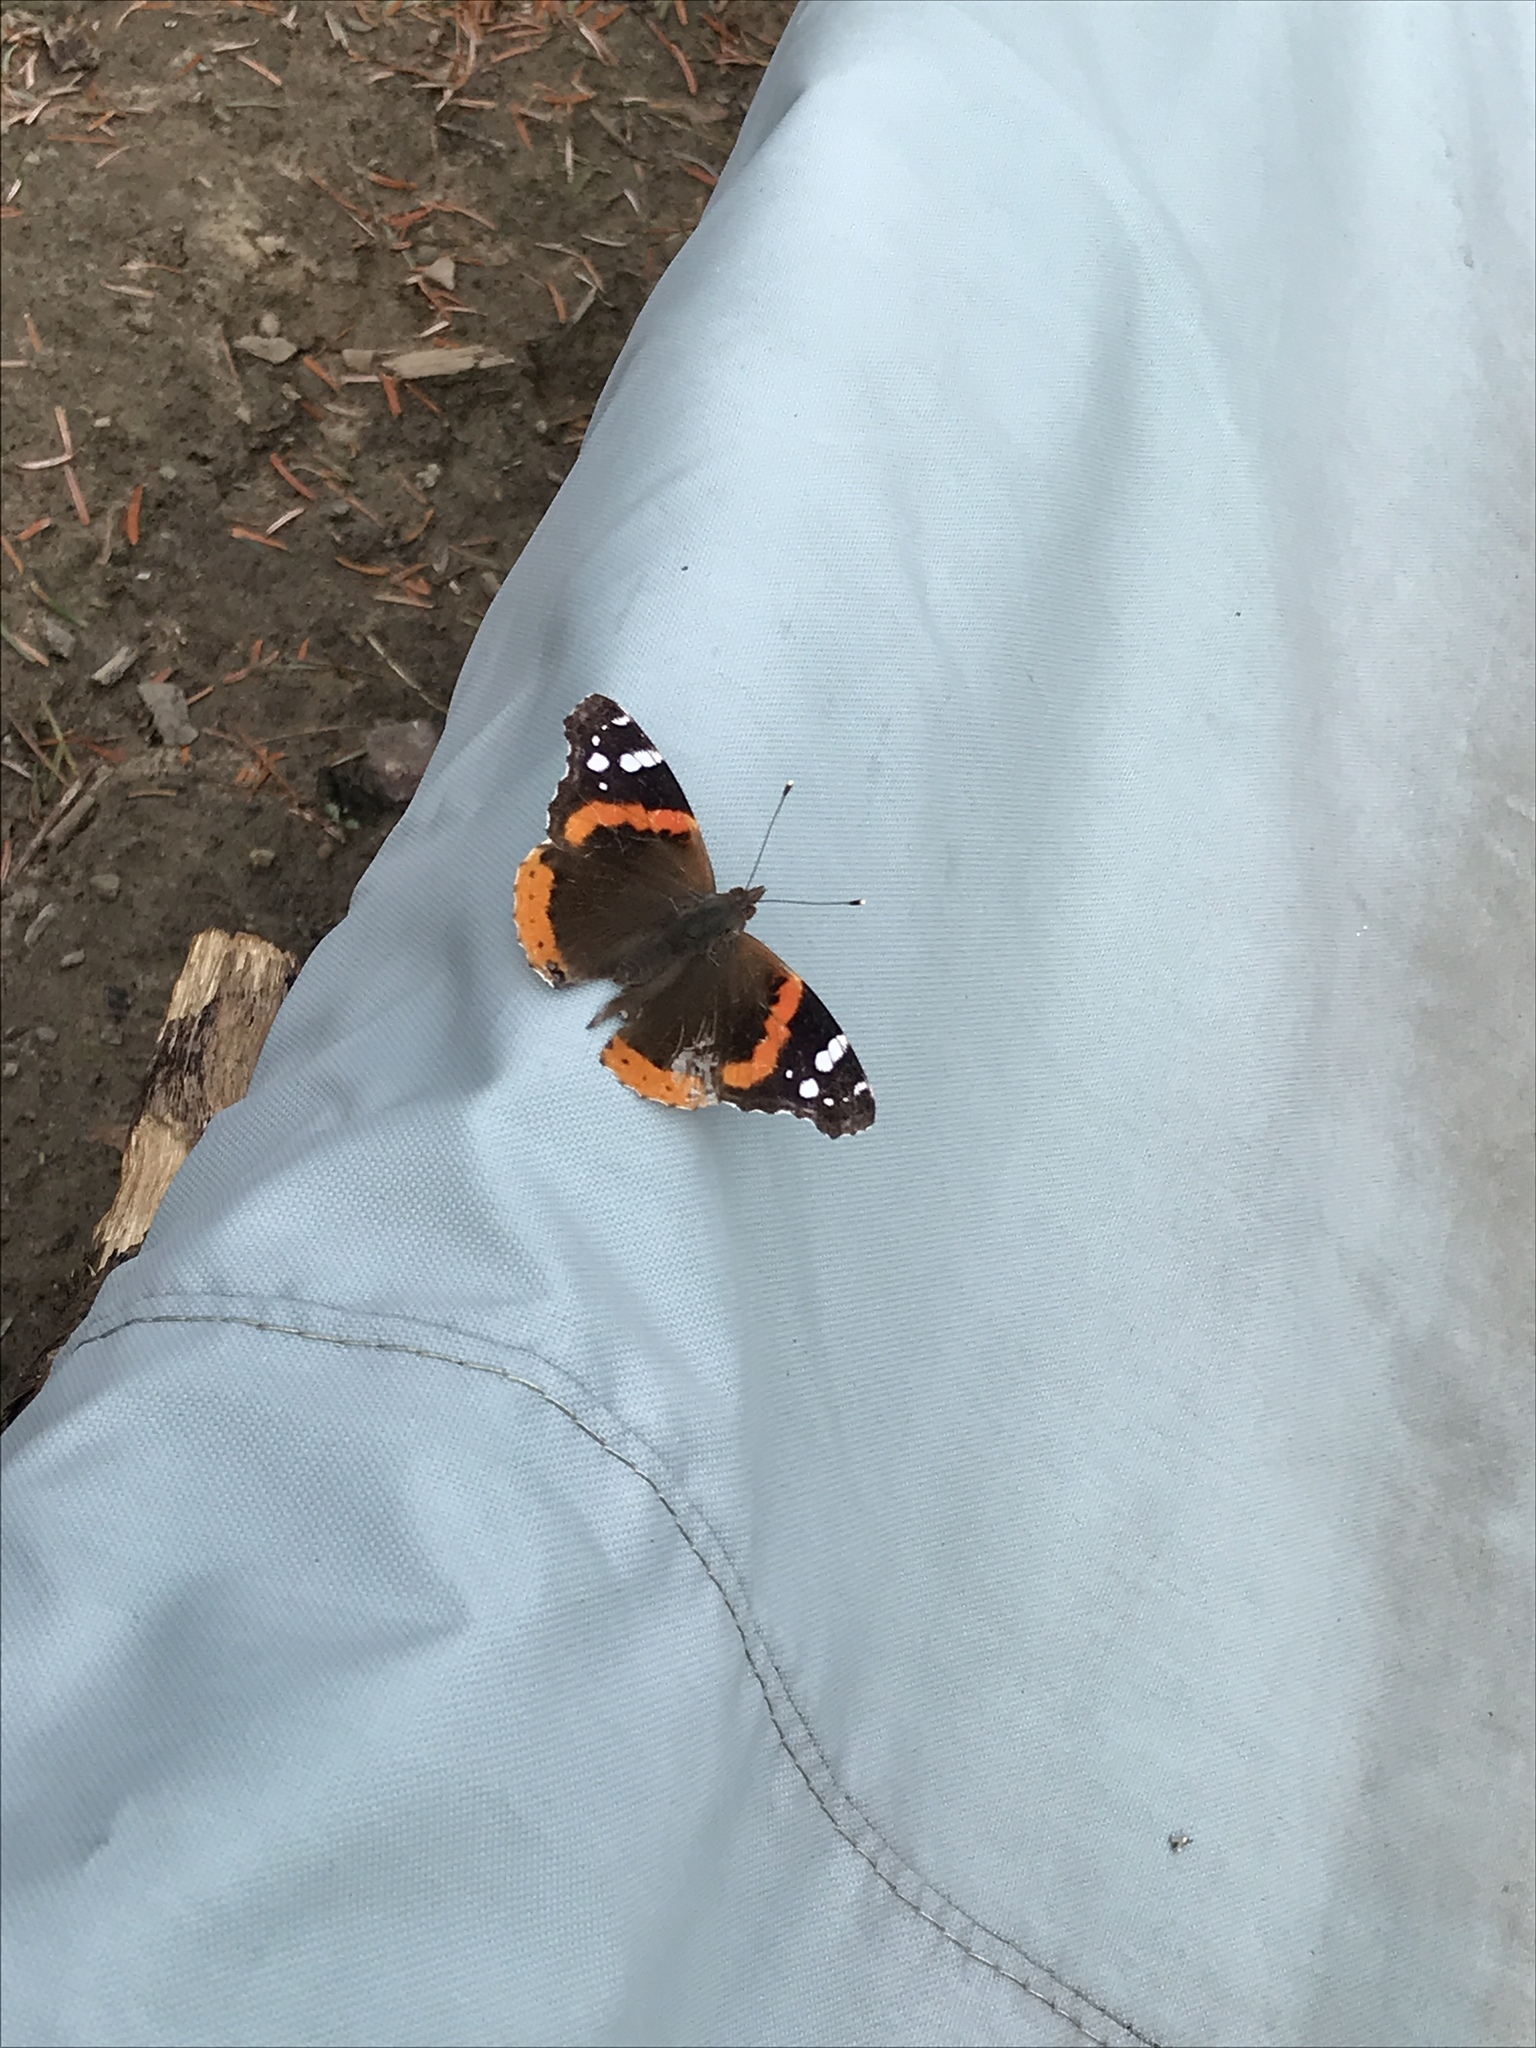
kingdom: Animalia
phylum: Arthropoda
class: Insecta
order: Lepidoptera
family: Nymphalidae
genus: Vanessa
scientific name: Vanessa atalanta
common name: Red admiral
